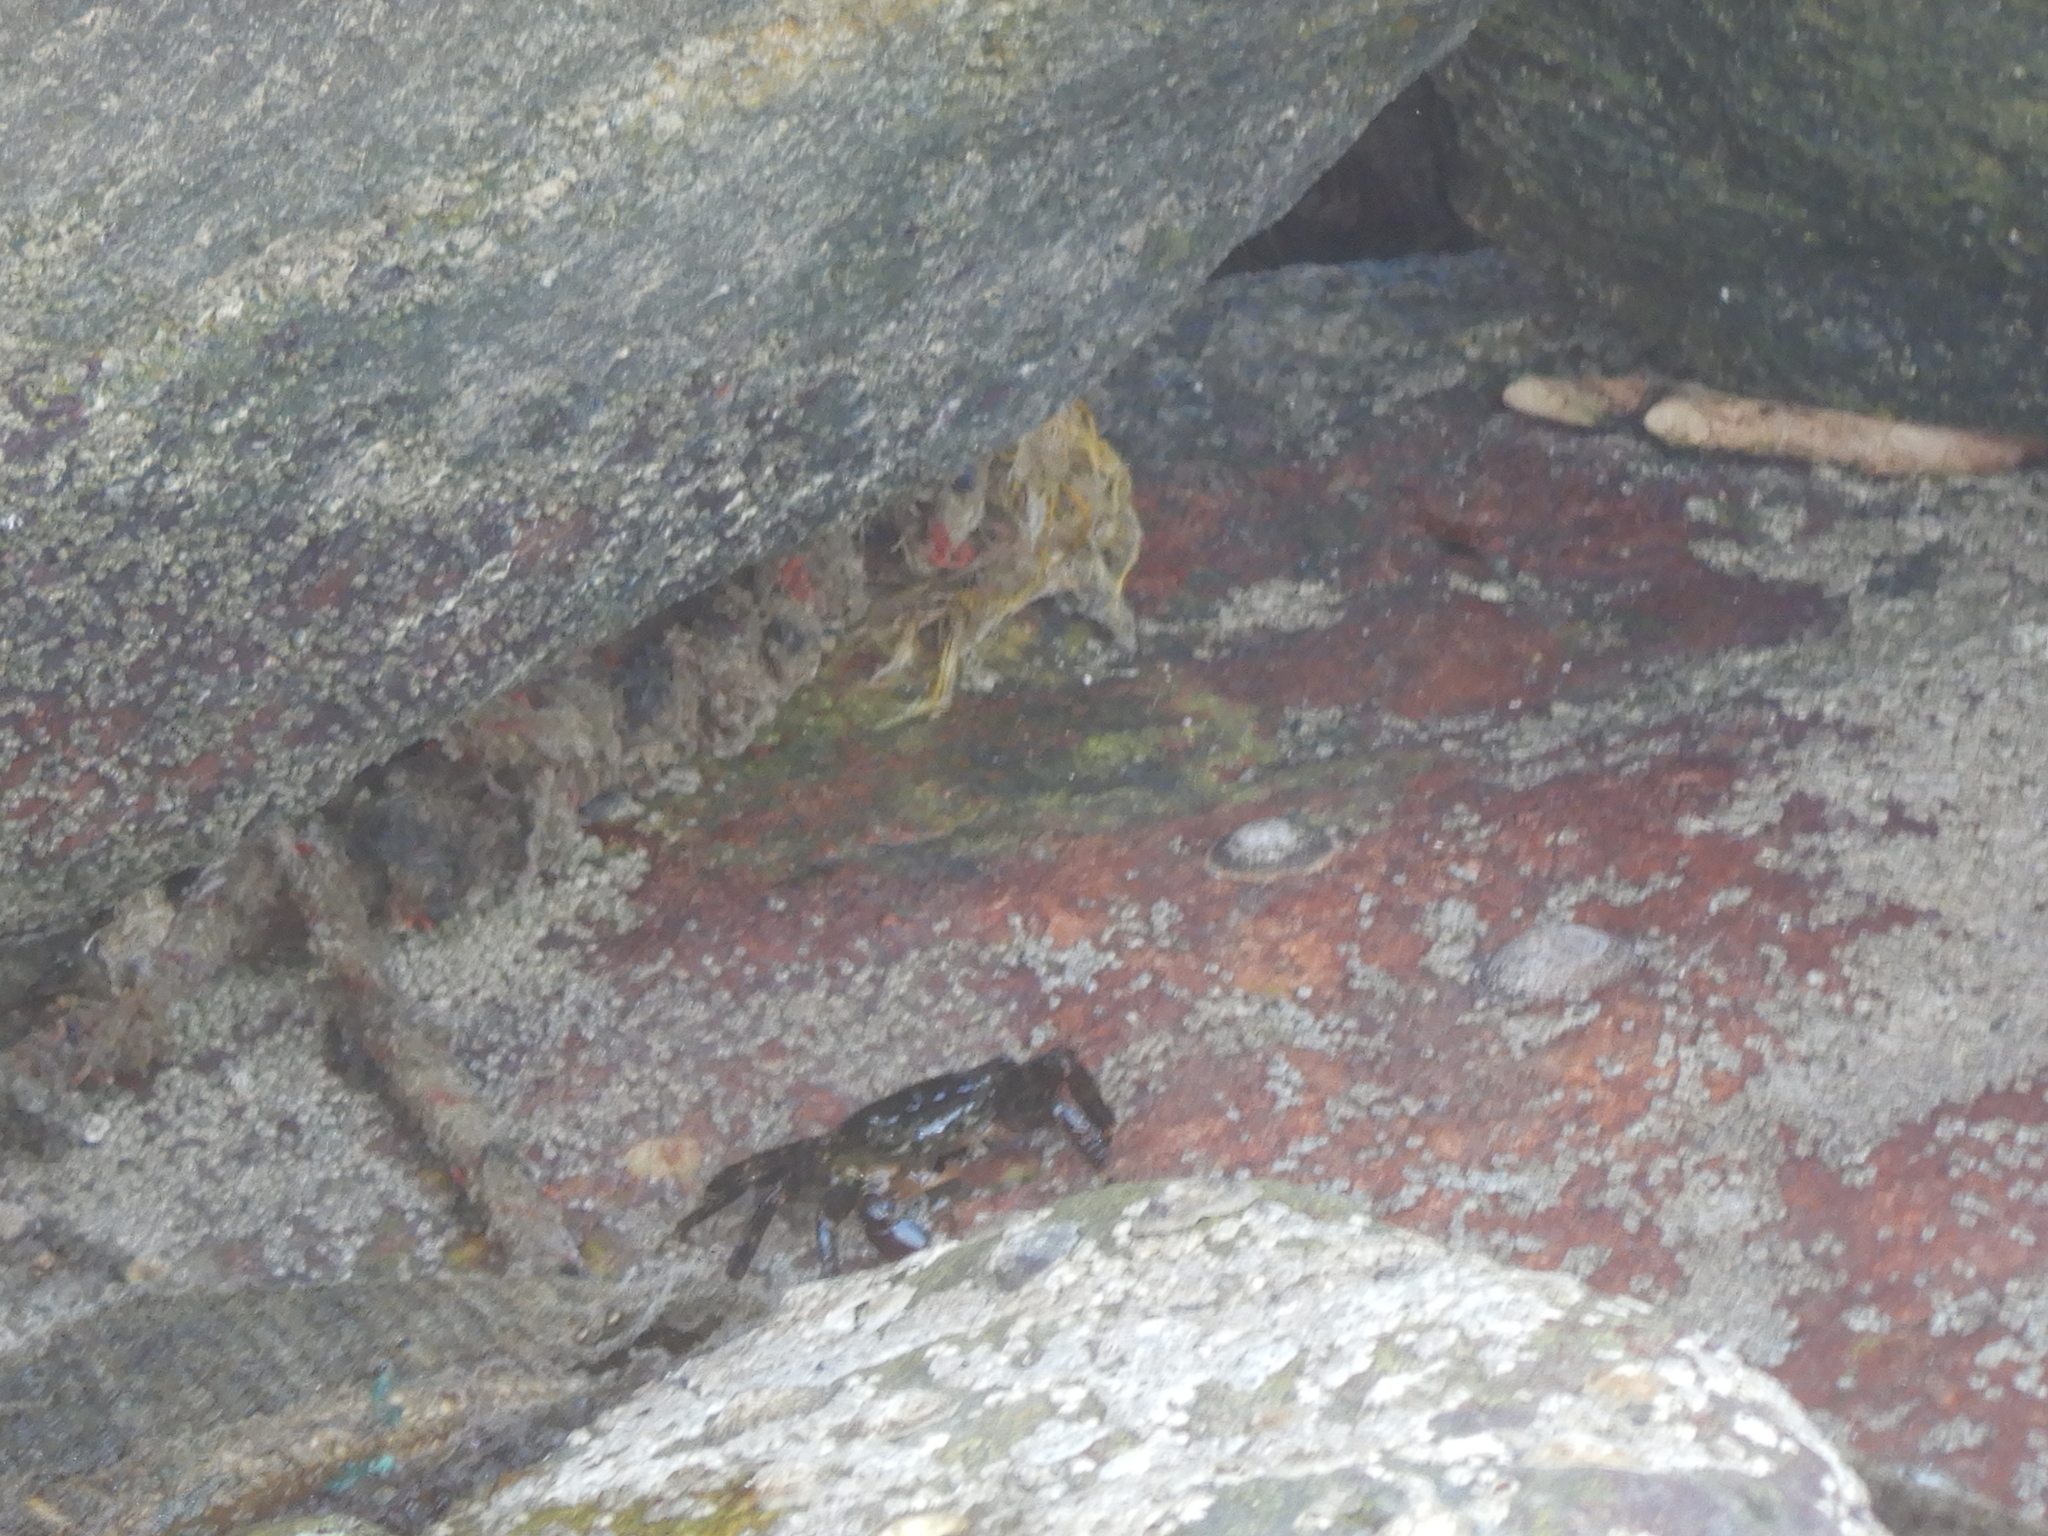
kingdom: Animalia
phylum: Arthropoda
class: Malacostraca
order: Decapoda
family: Grapsidae
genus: Pachygrapsus
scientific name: Pachygrapsus marmoratus
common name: Marbled rock crab
